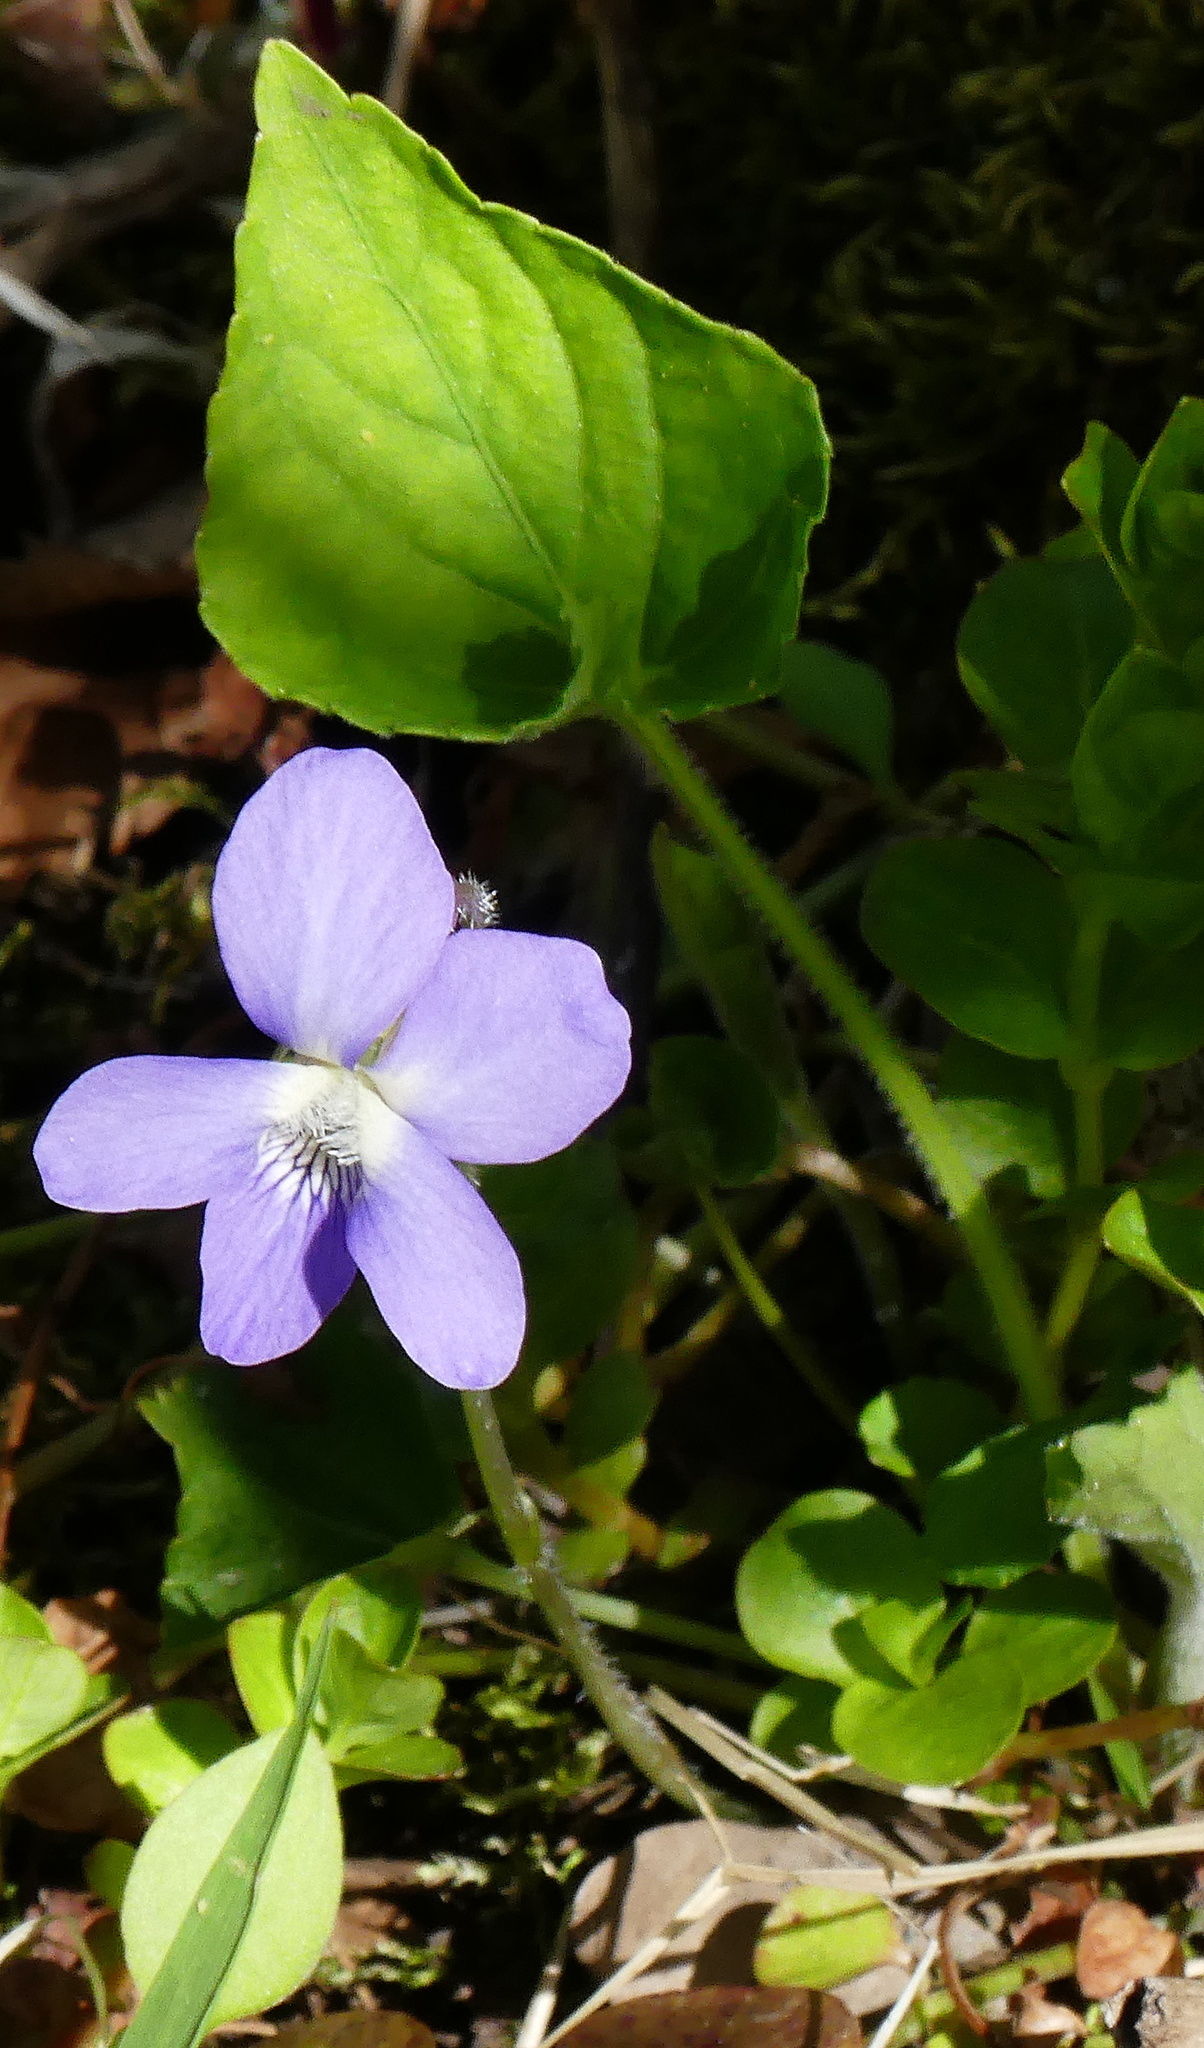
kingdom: Plantae
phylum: Tracheophyta
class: Magnoliopsida
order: Malpighiales
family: Violaceae
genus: Viola
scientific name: Viola sororia
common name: Dooryard violet
